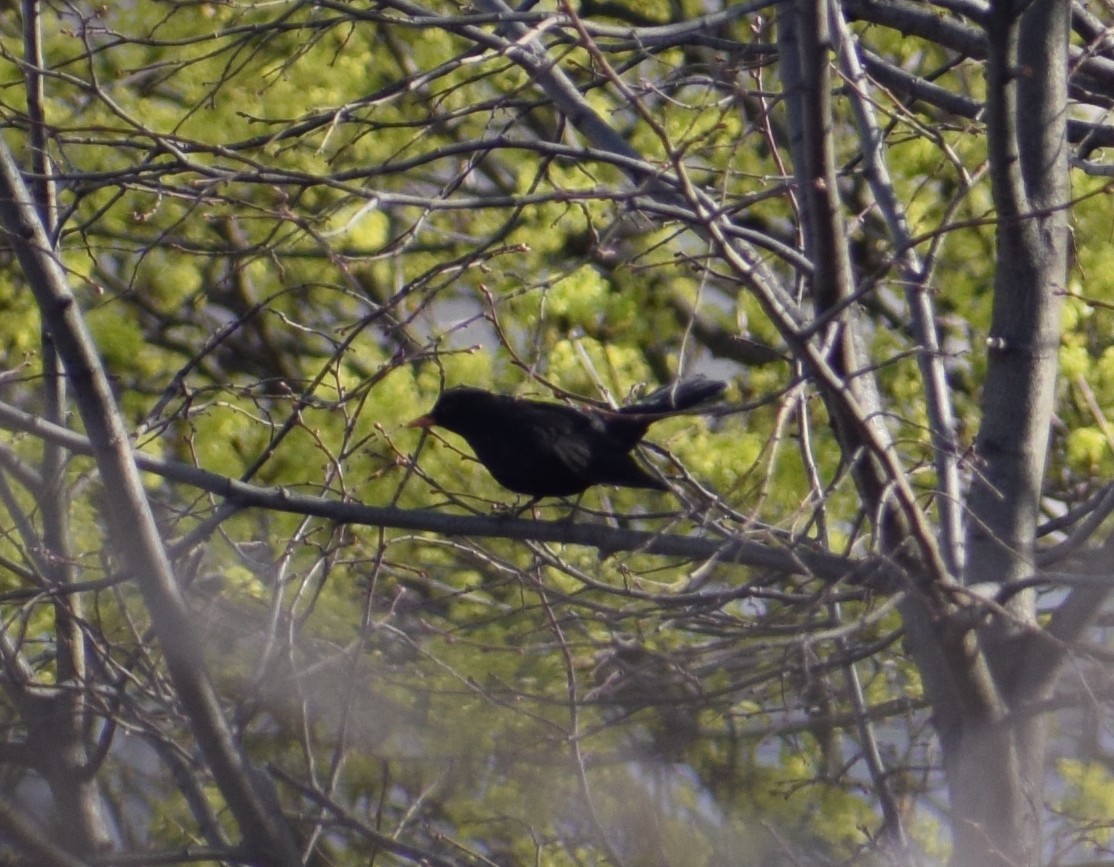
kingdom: Animalia
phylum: Chordata
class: Aves
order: Passeriformes
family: Turdidae
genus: Turdus
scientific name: Turdus merula
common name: Common blackbird
